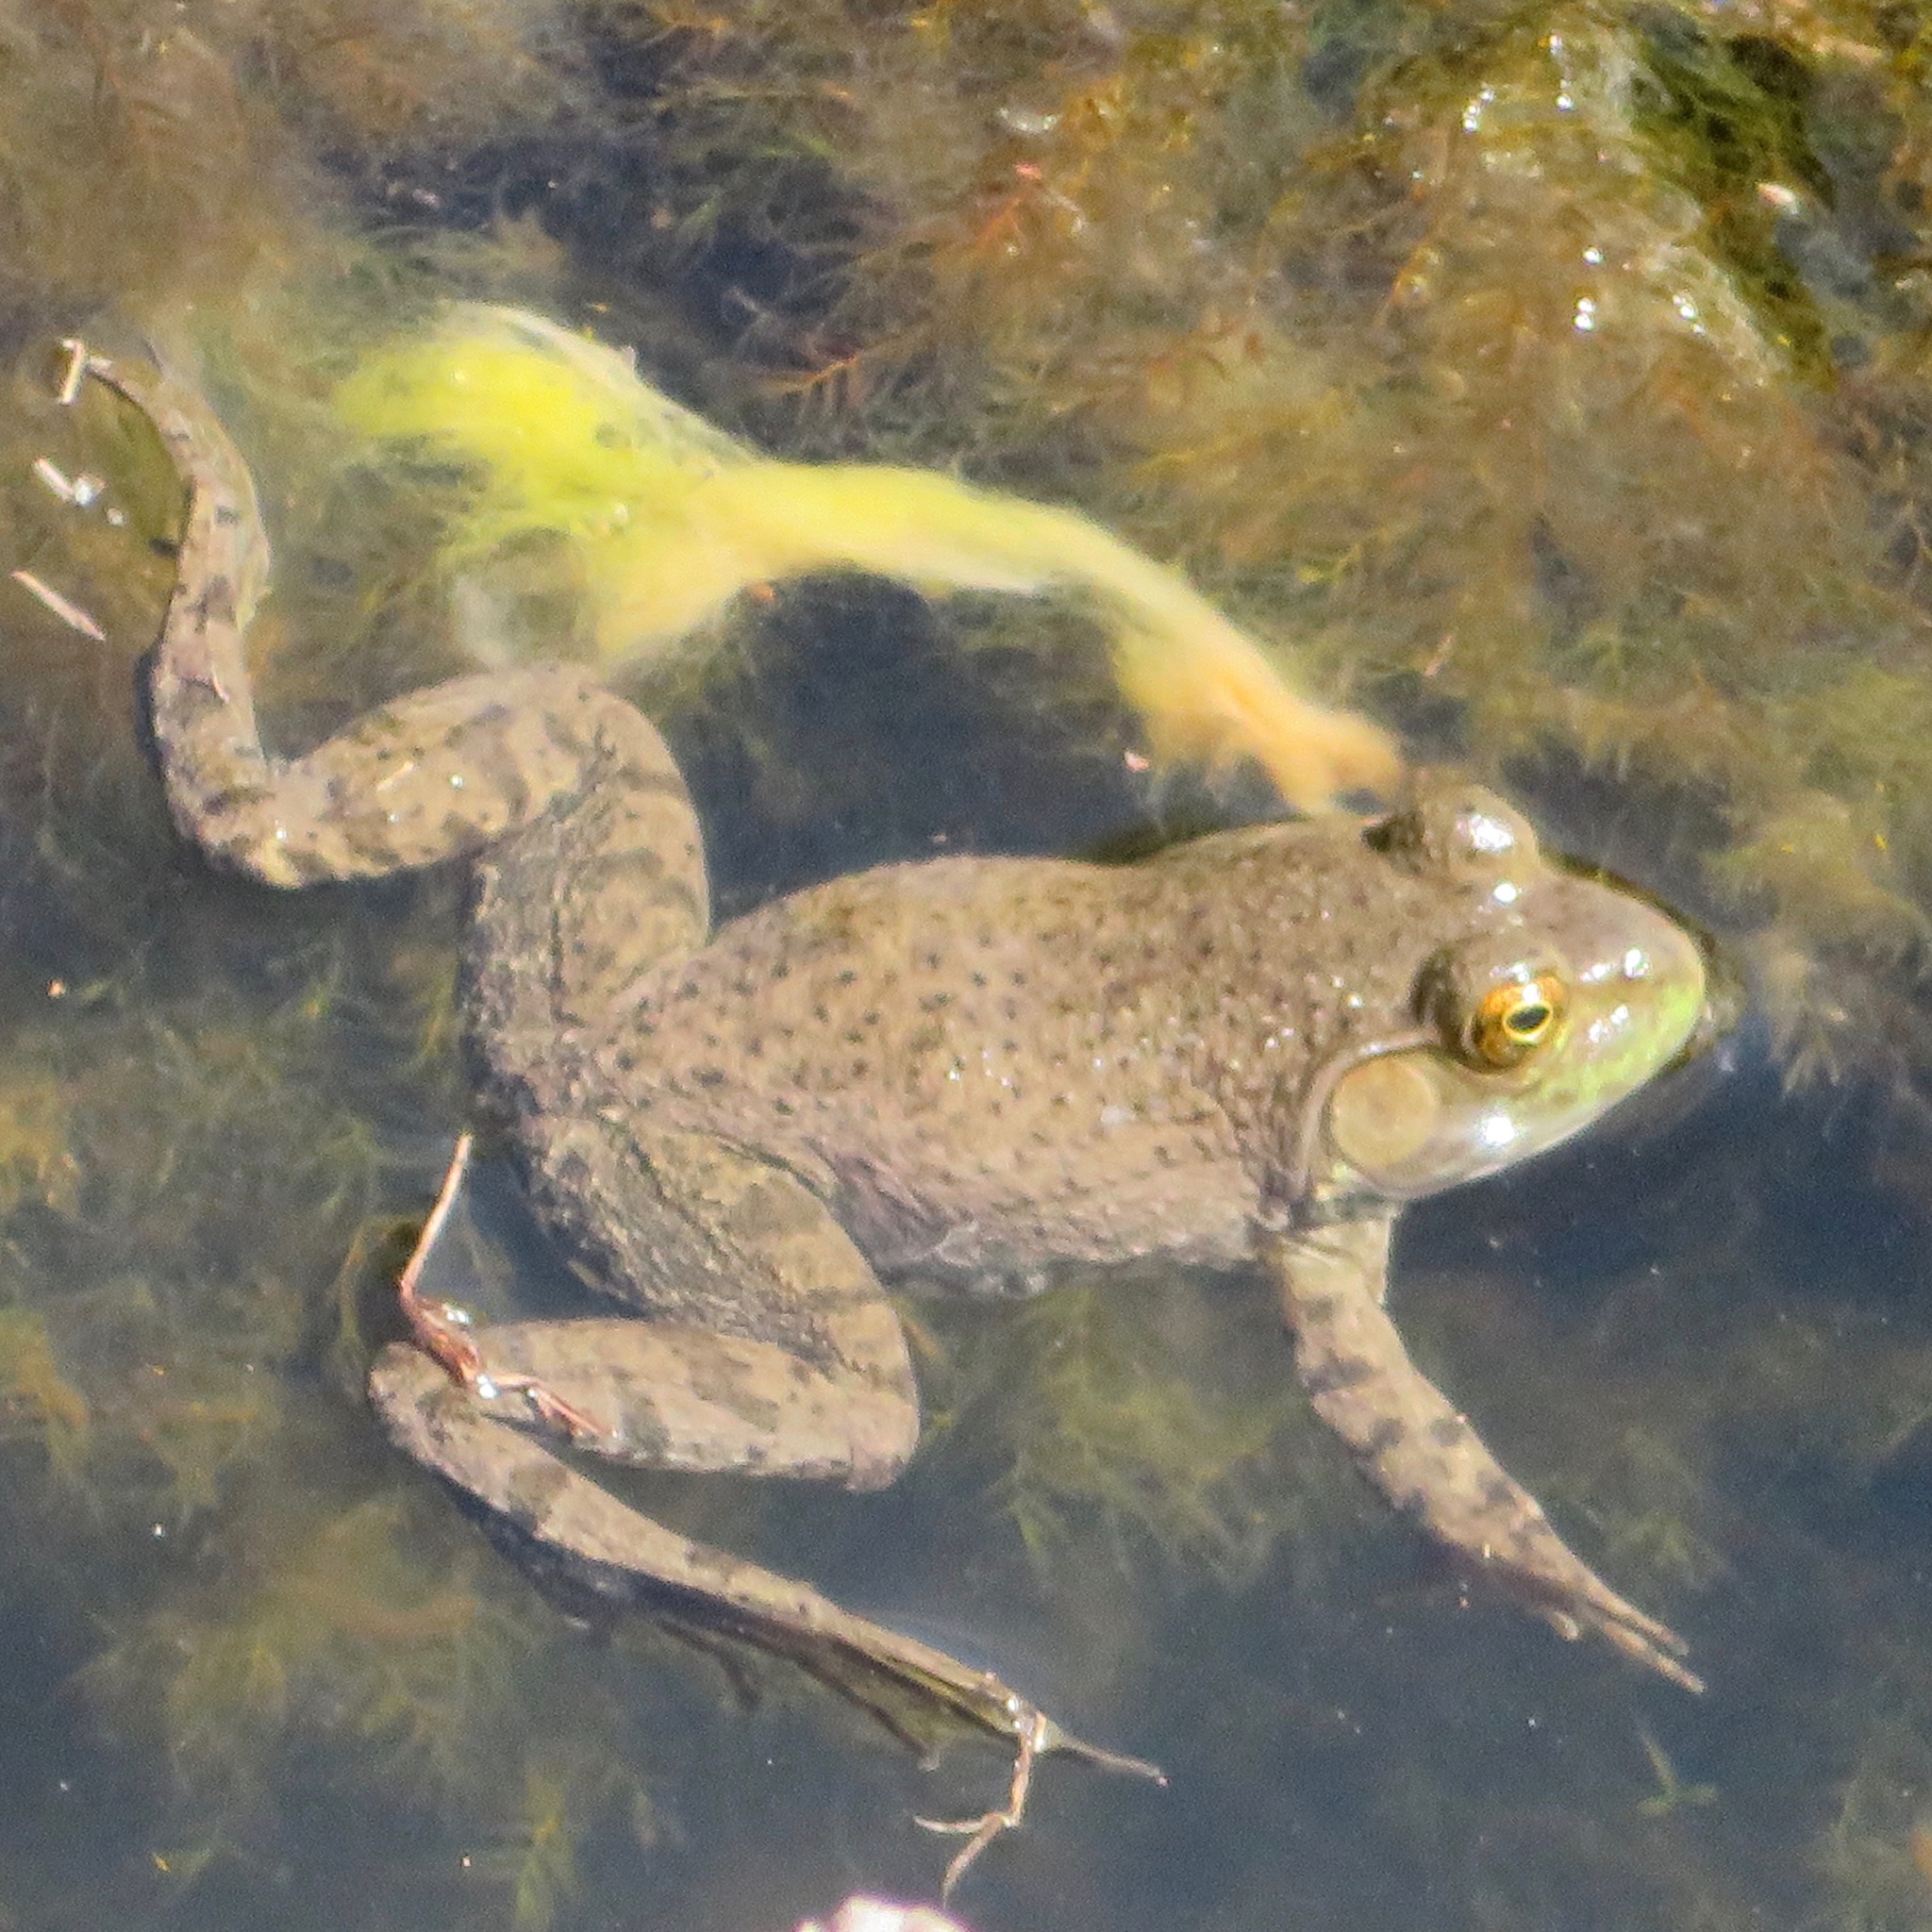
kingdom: Animalia
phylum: Chordata
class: Amphibia
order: Anura
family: Ranidae
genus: Lithobates
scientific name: Lithobates catesbeianus
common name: American bullfrog
